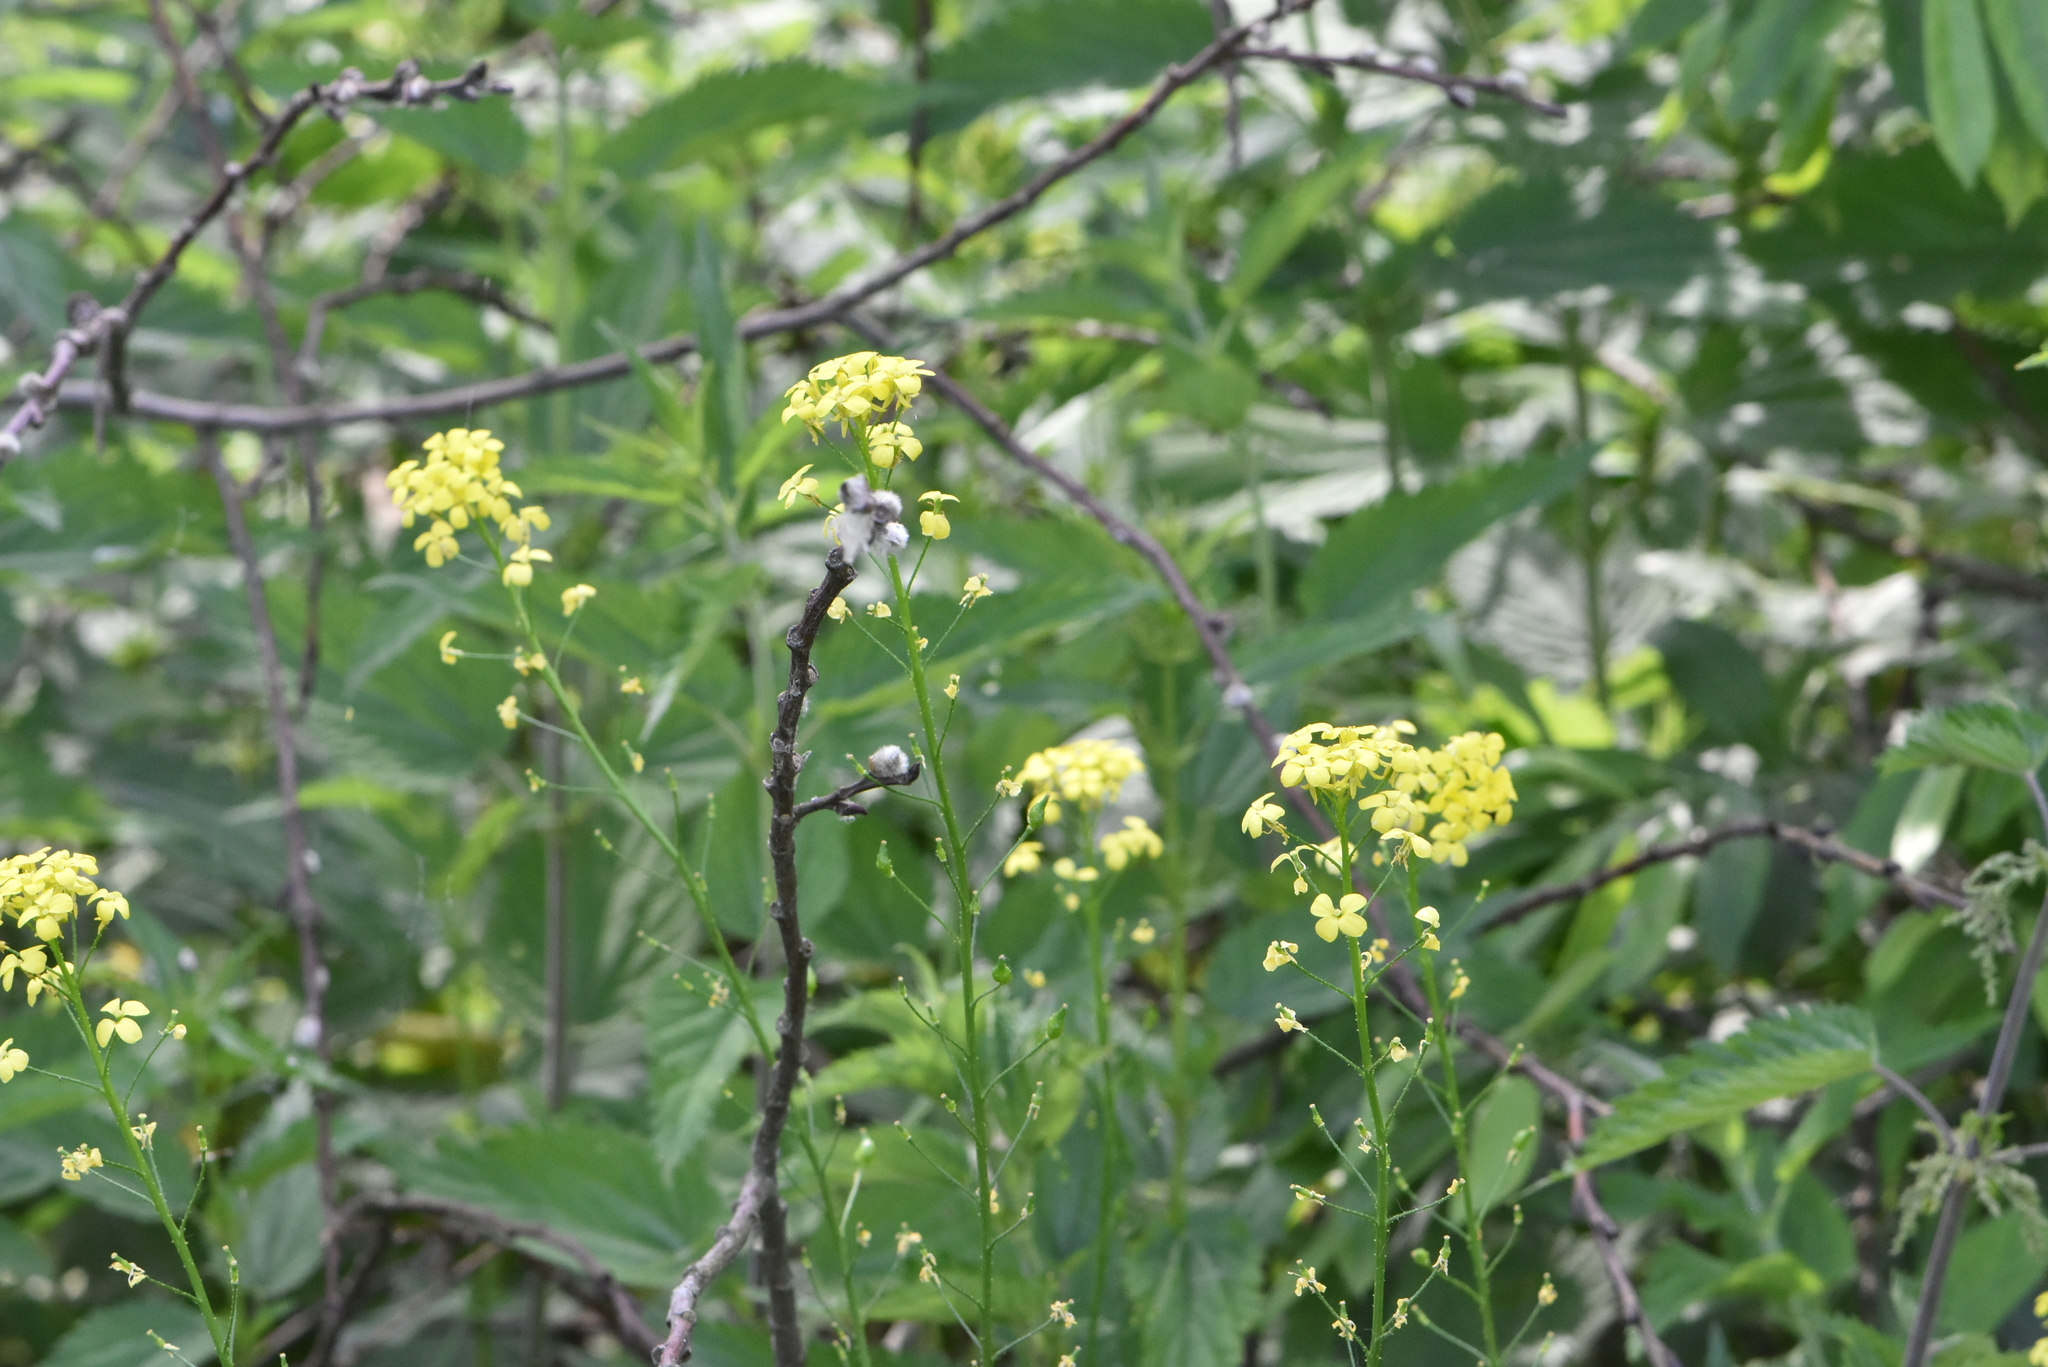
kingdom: Plantae
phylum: Tracheophyta
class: Magnoliopsida
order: Brassicales
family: Brassicaceae
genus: Bunias
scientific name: Bunias orientalis
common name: Warty-cabbage
